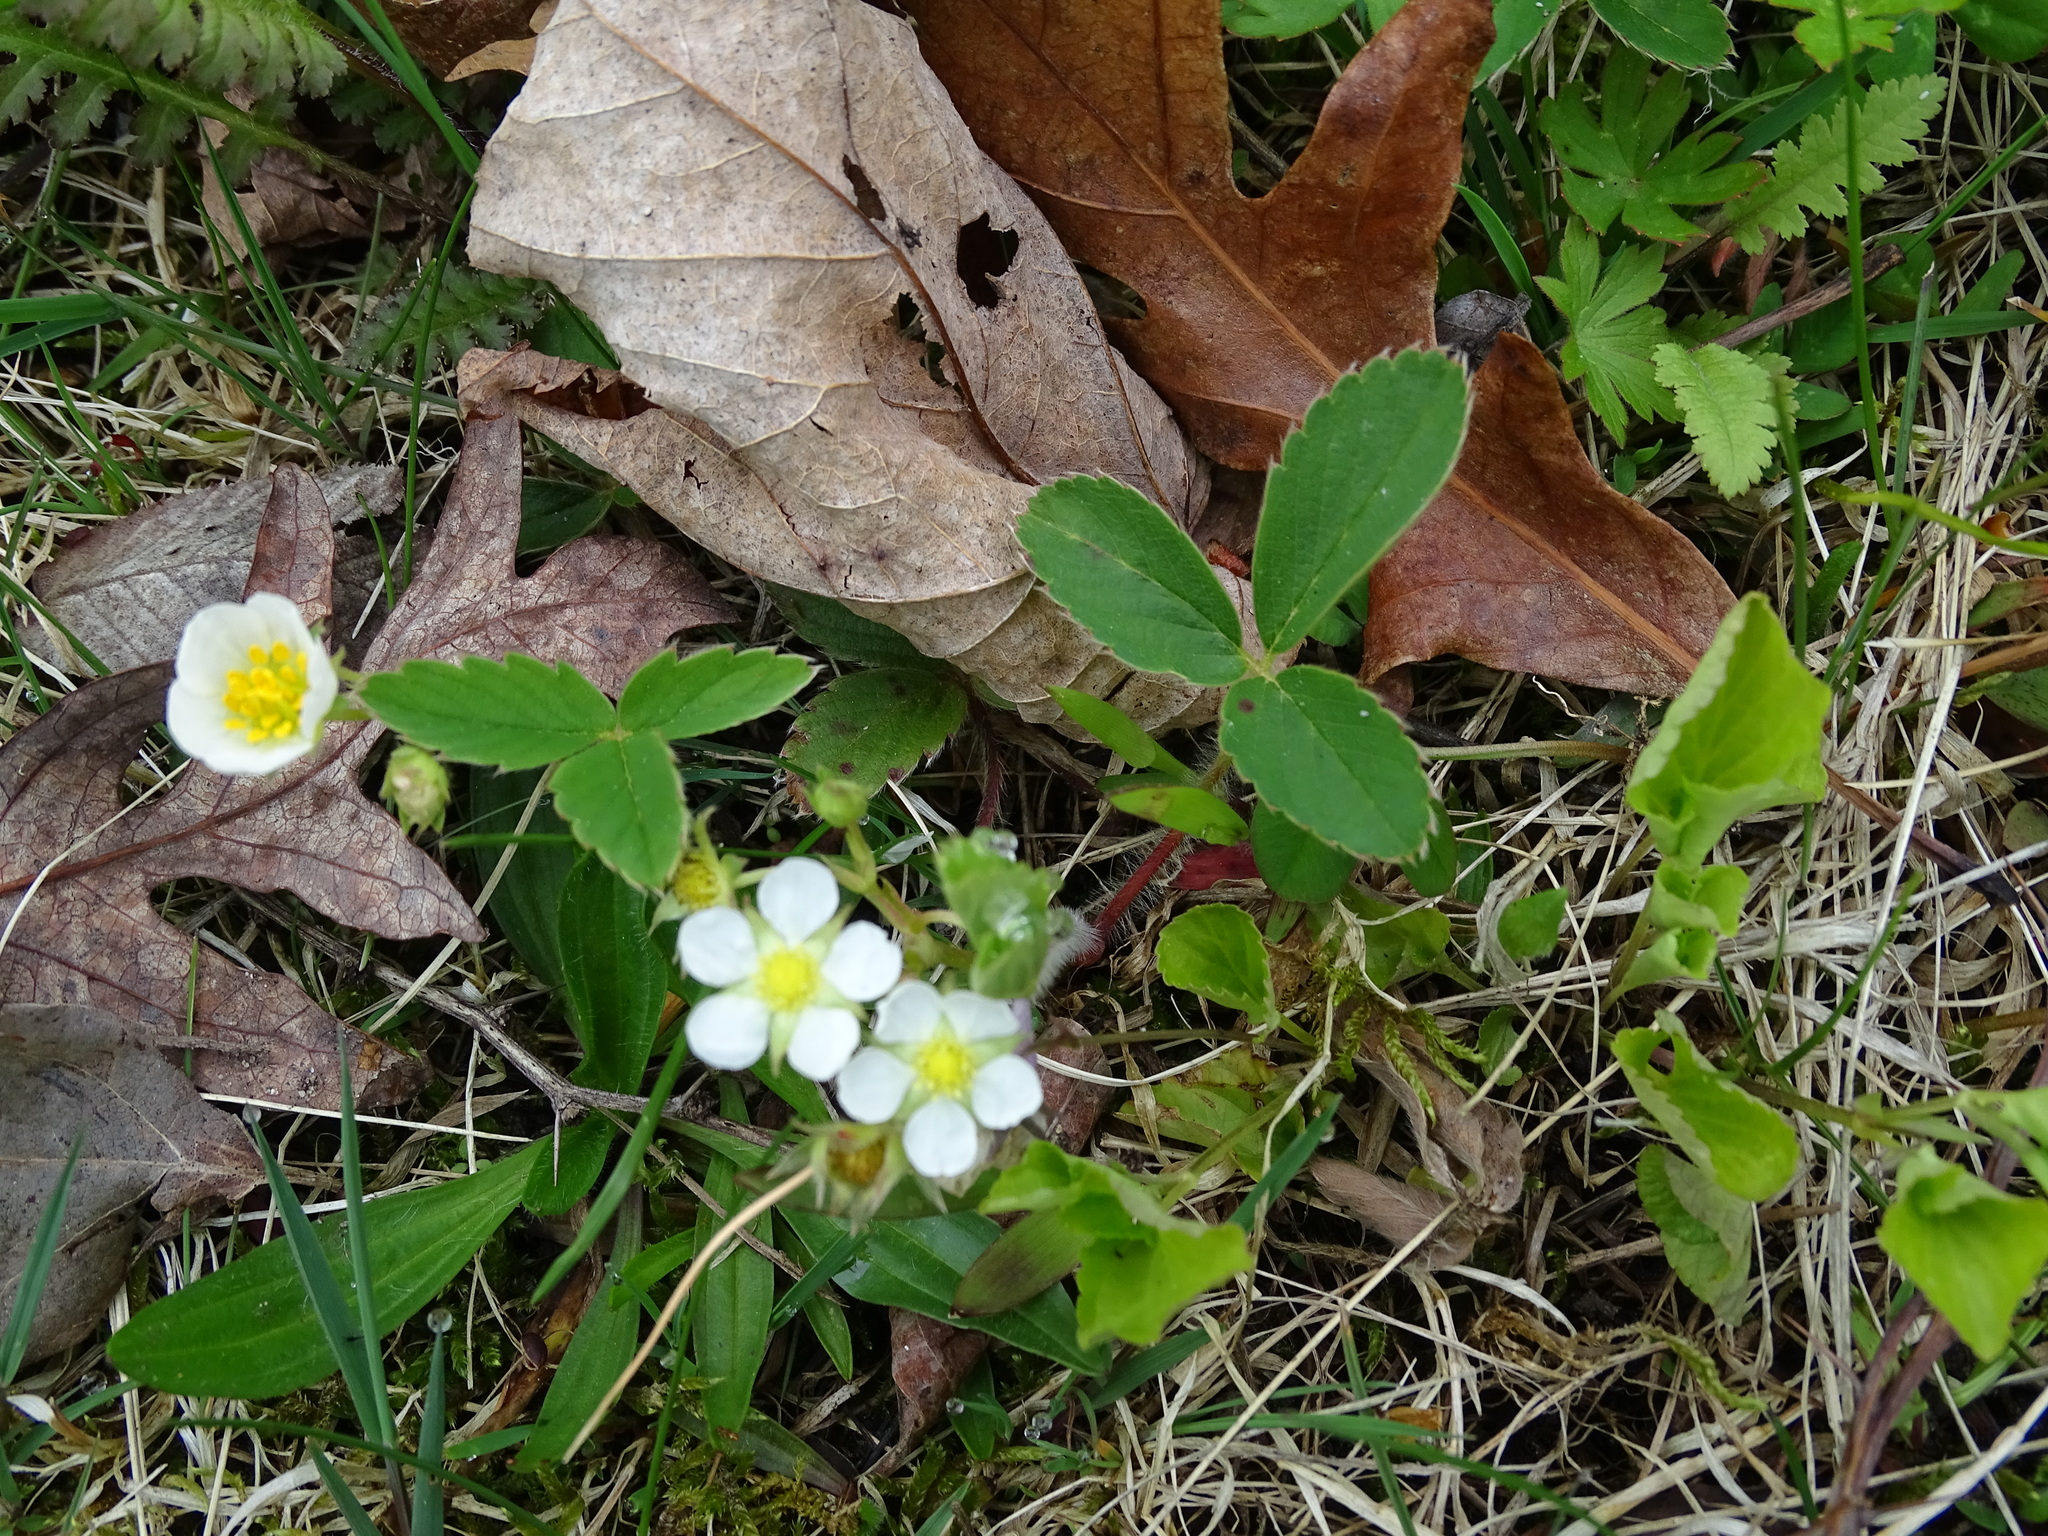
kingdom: Plantae
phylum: Tracheophyta
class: Magnoliopsida
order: Rosales
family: Rosaceae
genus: Fragaria
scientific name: Fragaria virginiana
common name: Thickleaved wild strawberry
